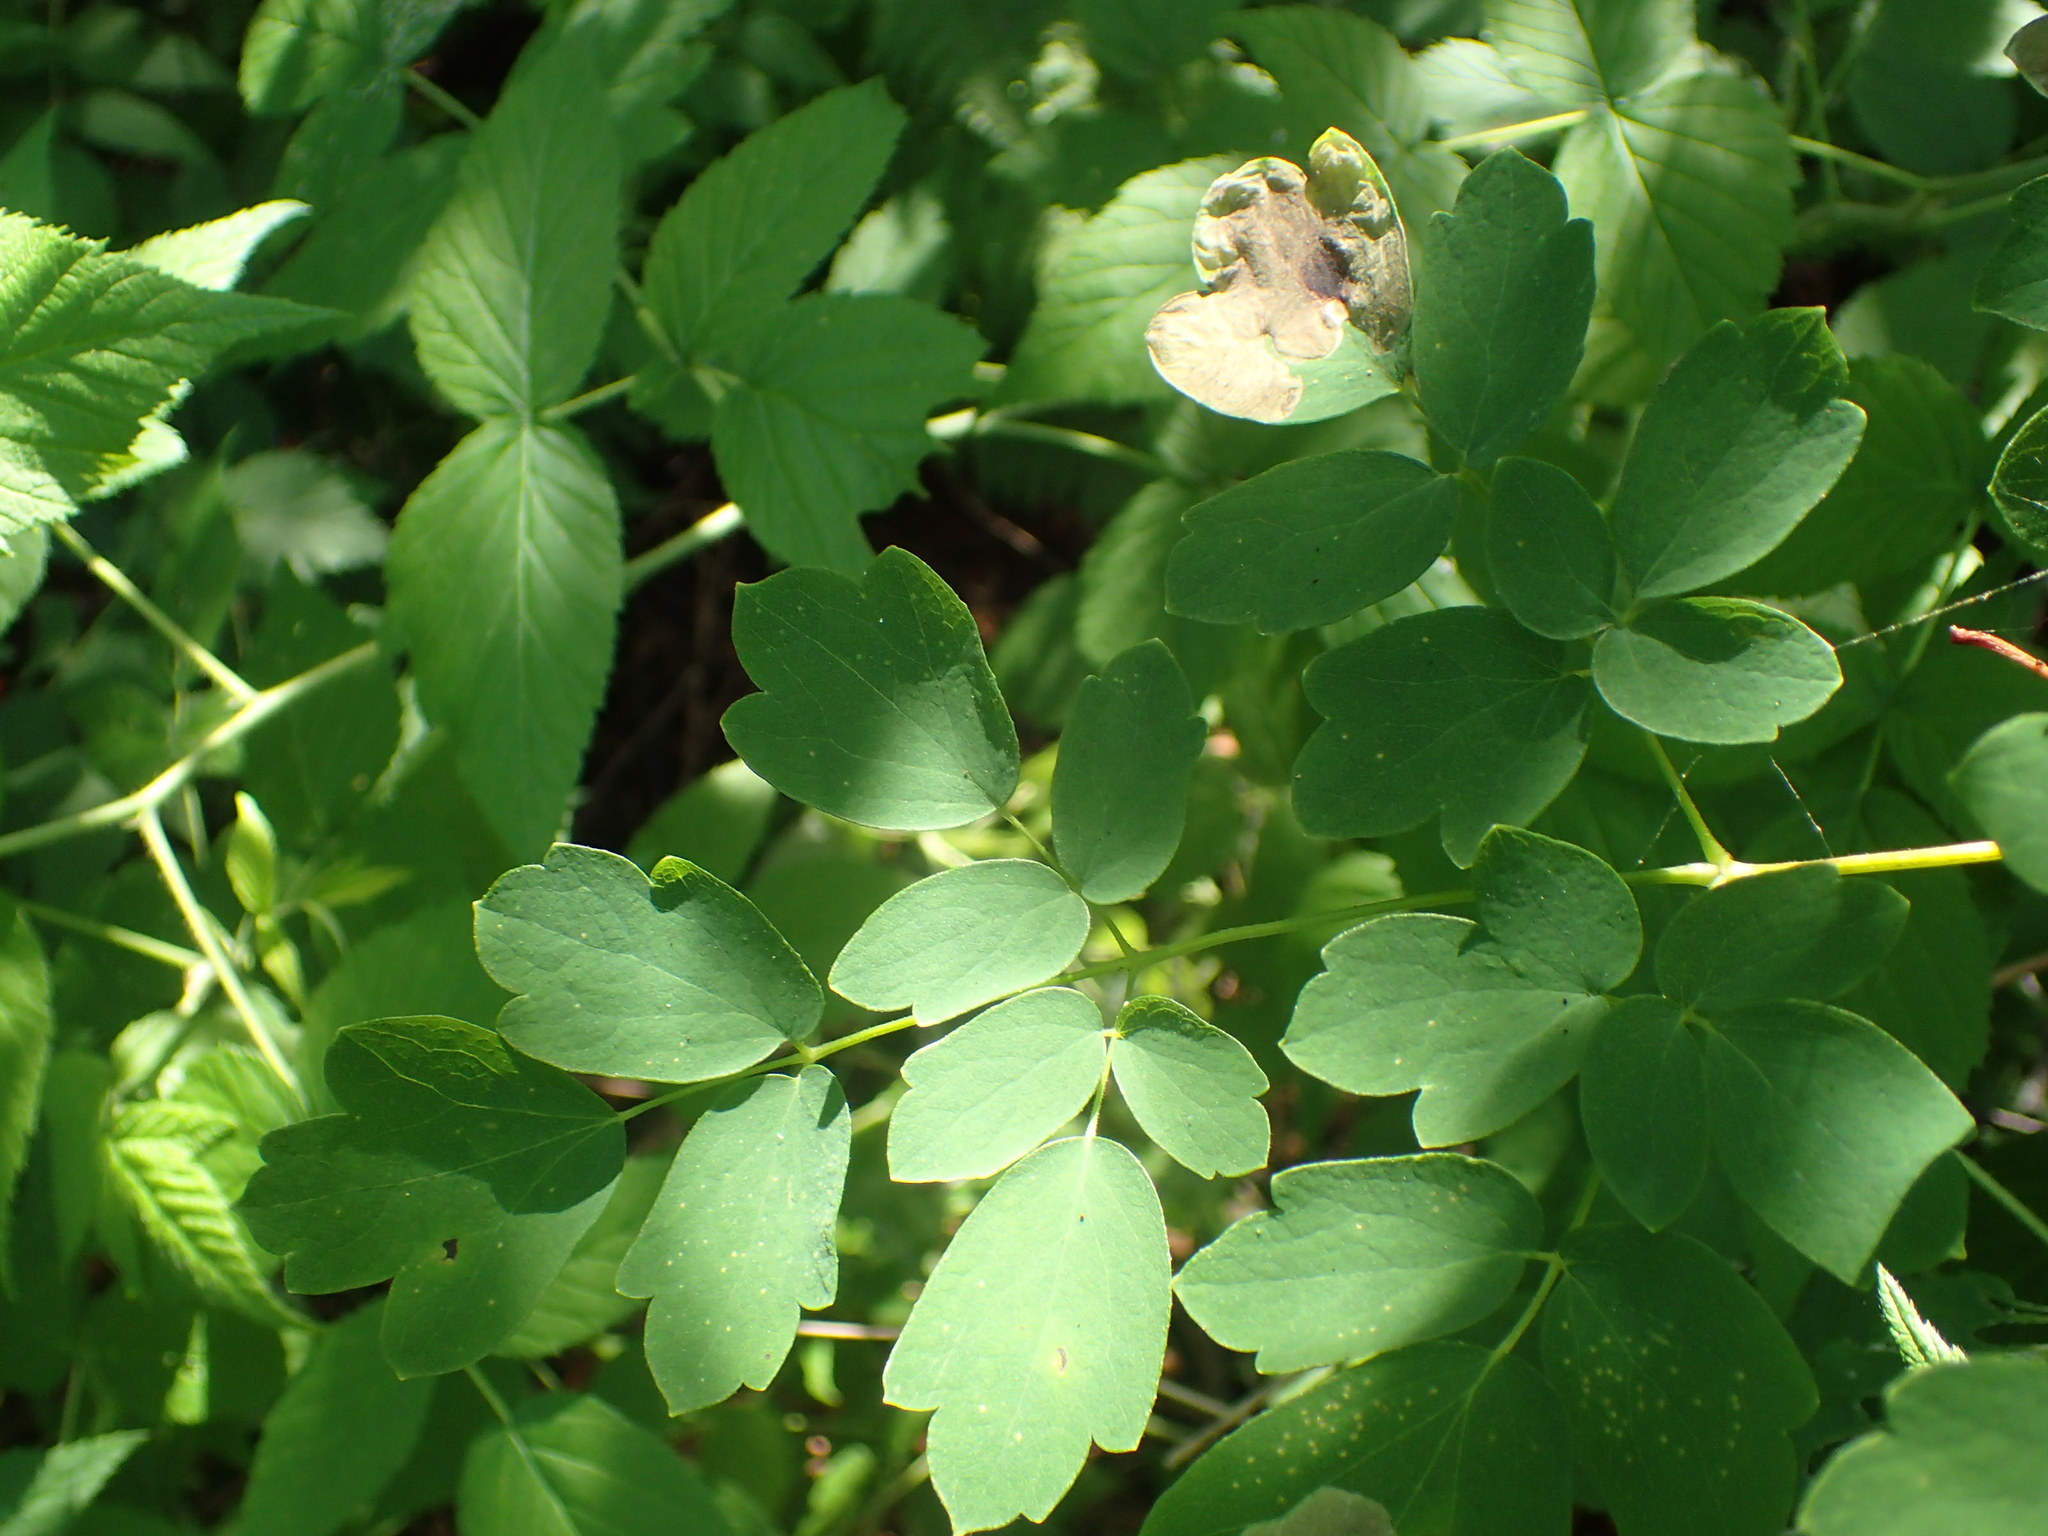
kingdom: Plantae
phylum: Tracheophyta
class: Magnoliopsida
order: Ranunculales
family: Ranunculaceae
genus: Thalictrum
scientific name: Thalictrum pubescens
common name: King-of-the-meadow
